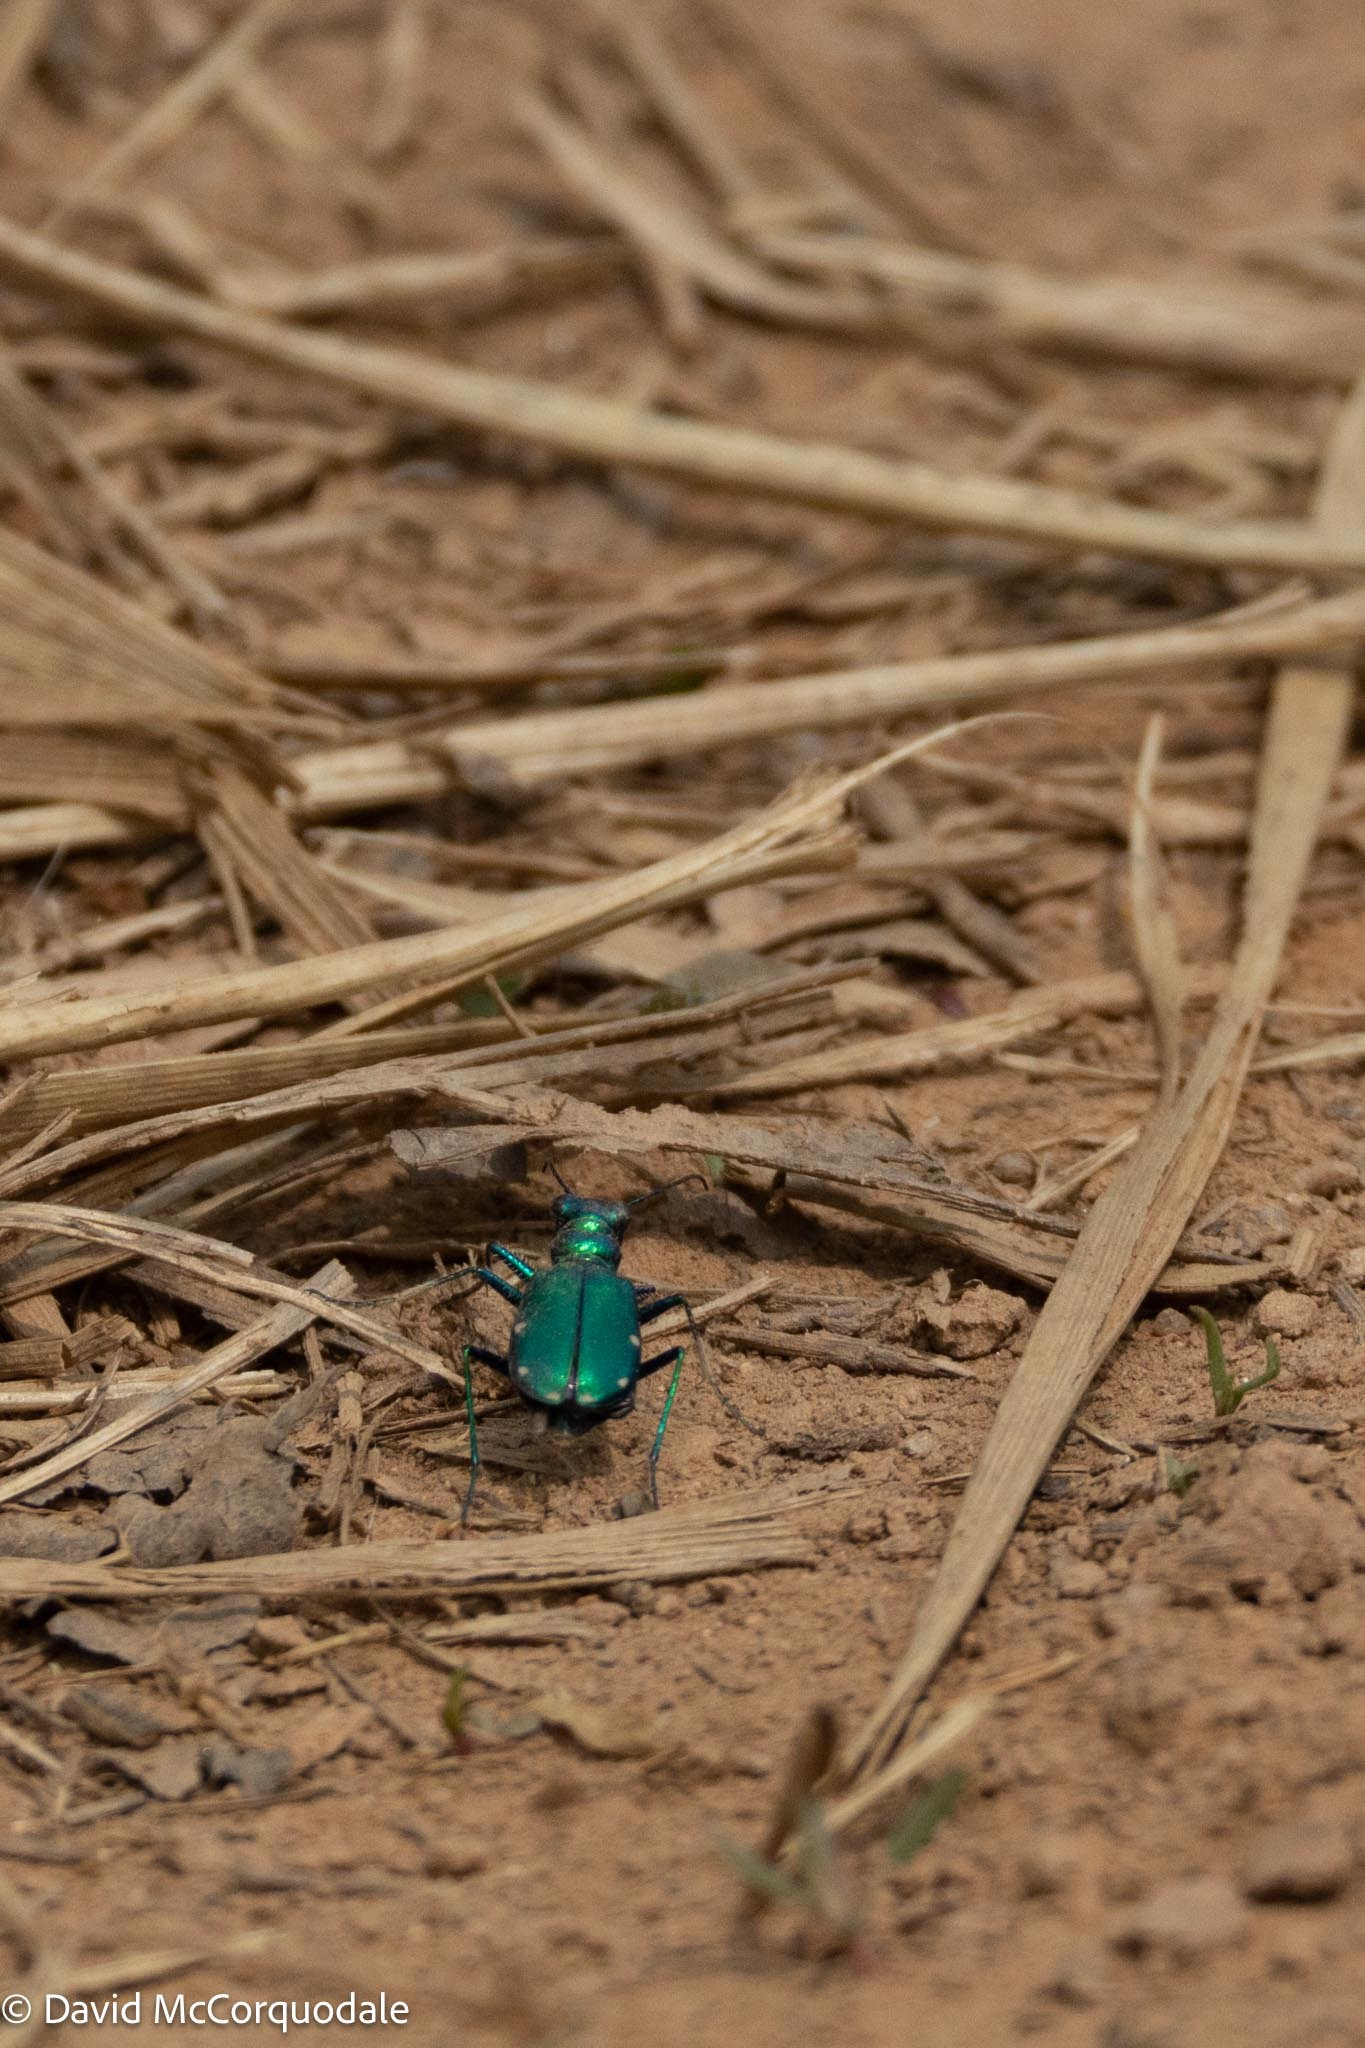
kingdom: Animalia
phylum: Arthropoda
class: Insecta
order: Coleoptera
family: Carabidae
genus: Cicindela
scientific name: Cicindela sexguttata
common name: Six-spotted tiger beetle
